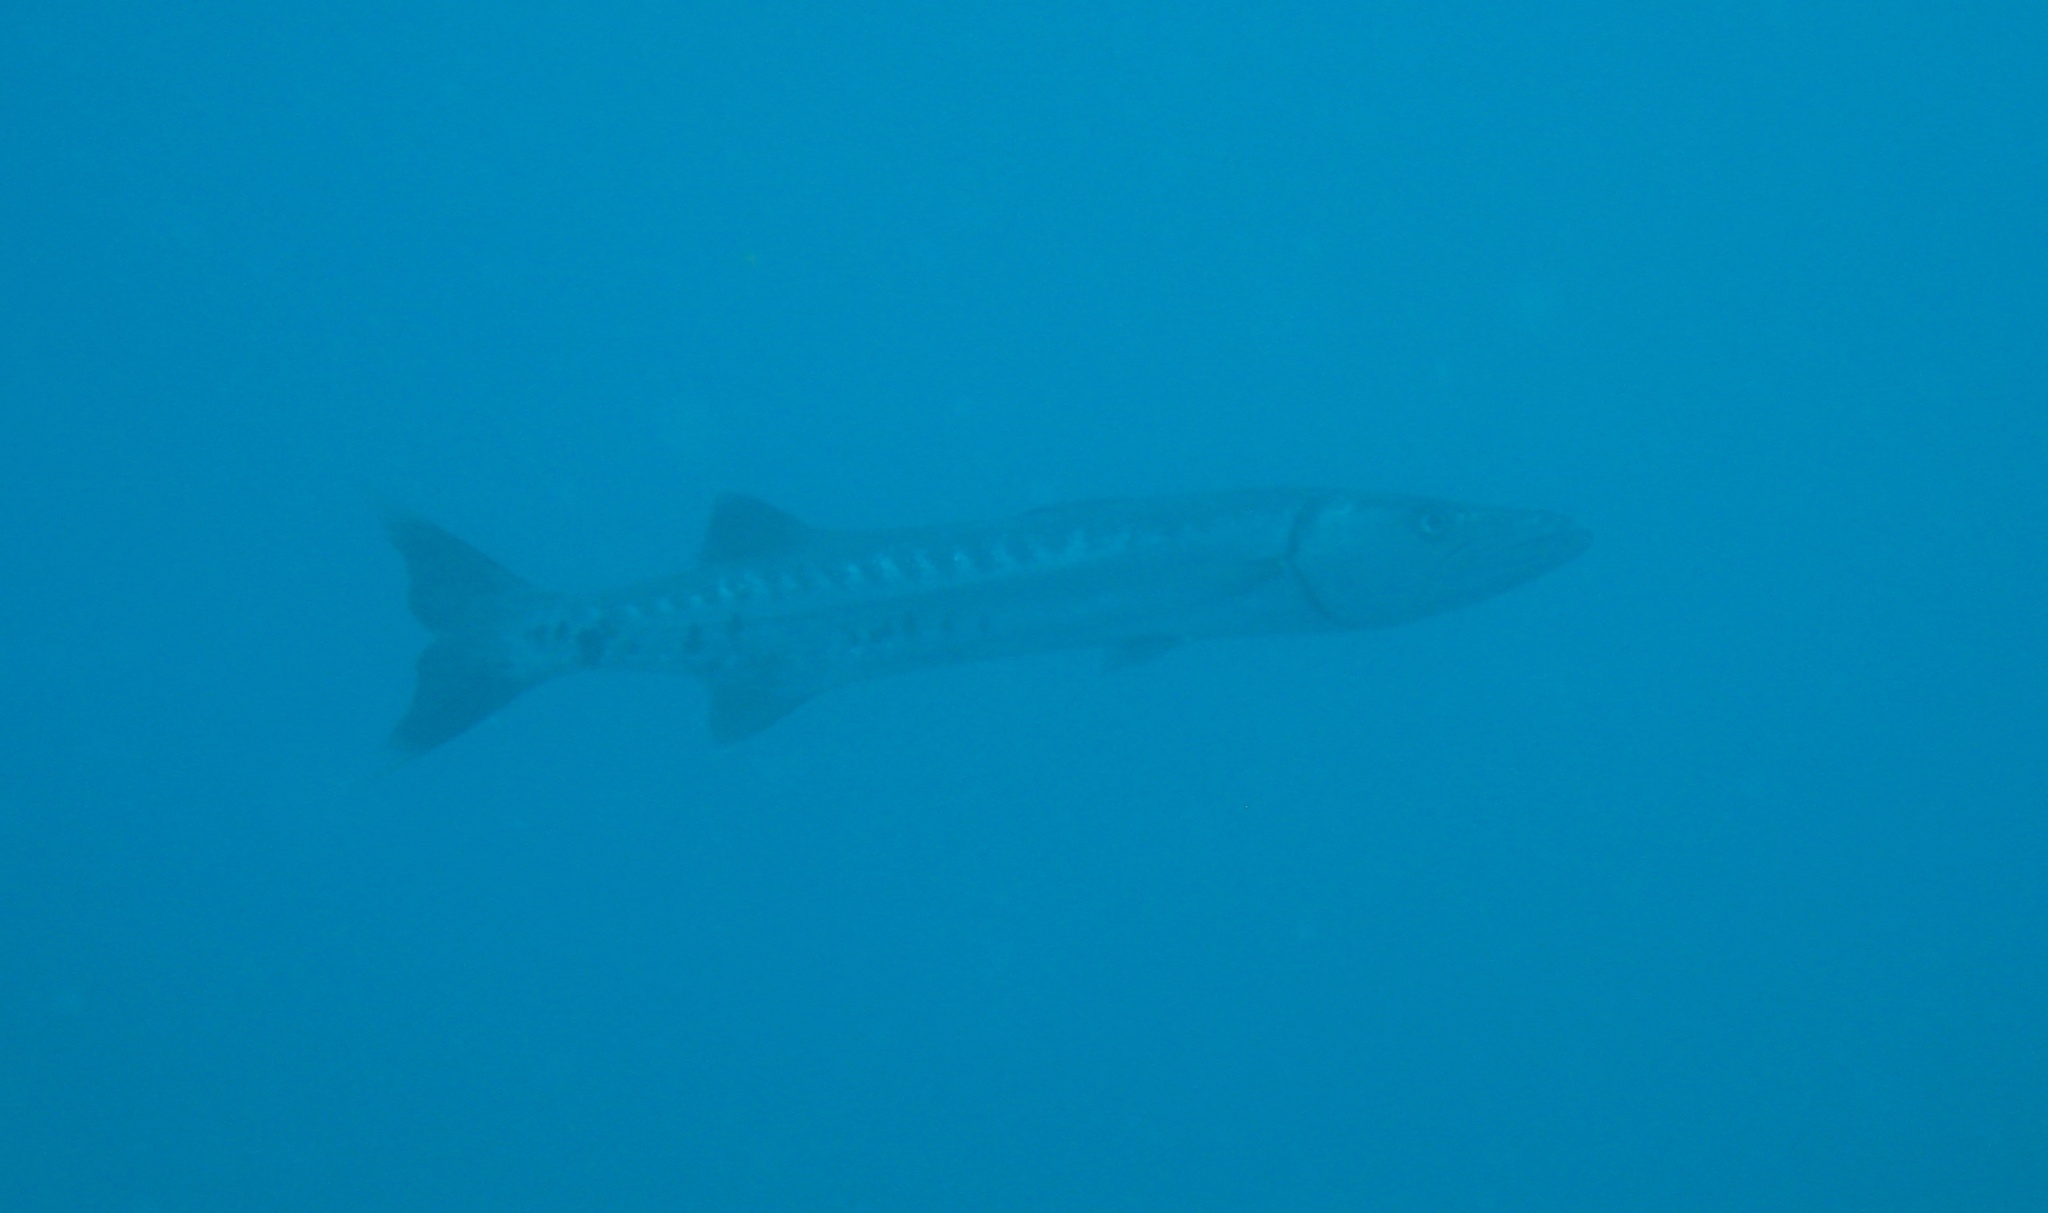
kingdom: Animalia
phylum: Chordata
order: Perciformes
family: Sphyraenidae
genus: Sphyraena
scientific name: Sphyraena barracuda
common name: Great barracuda
